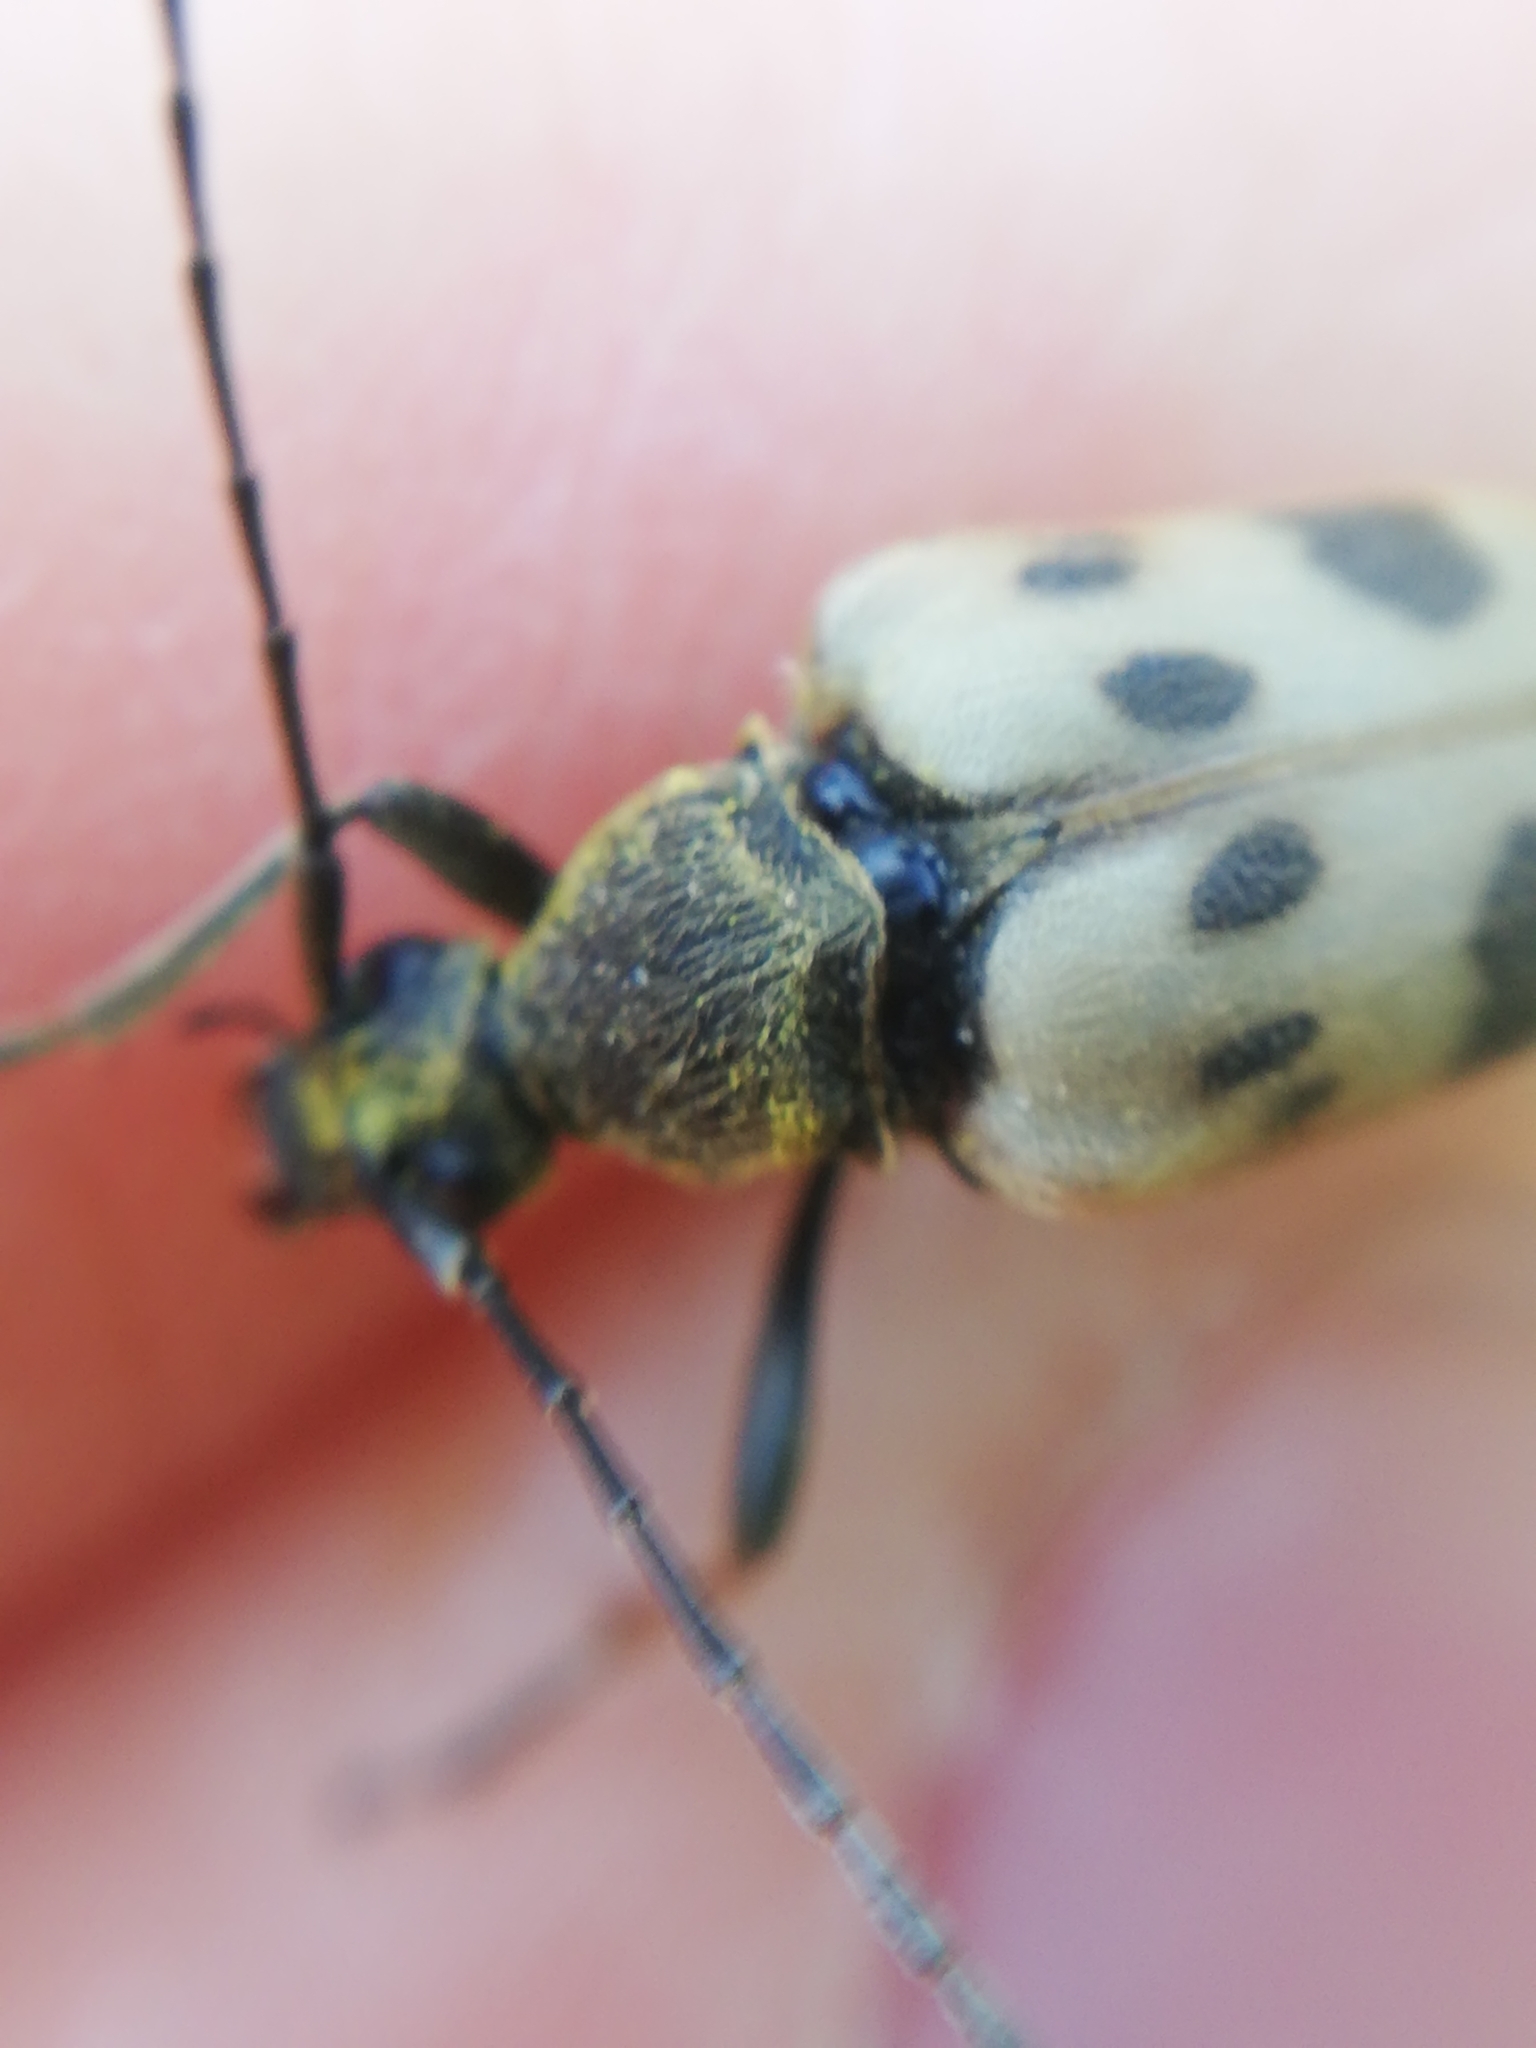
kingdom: Animalia
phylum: Arthropoda
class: Insecta
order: Coleoptera
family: Cerambycidae
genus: Pachytodes
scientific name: Pachytodes cerambyciformis
